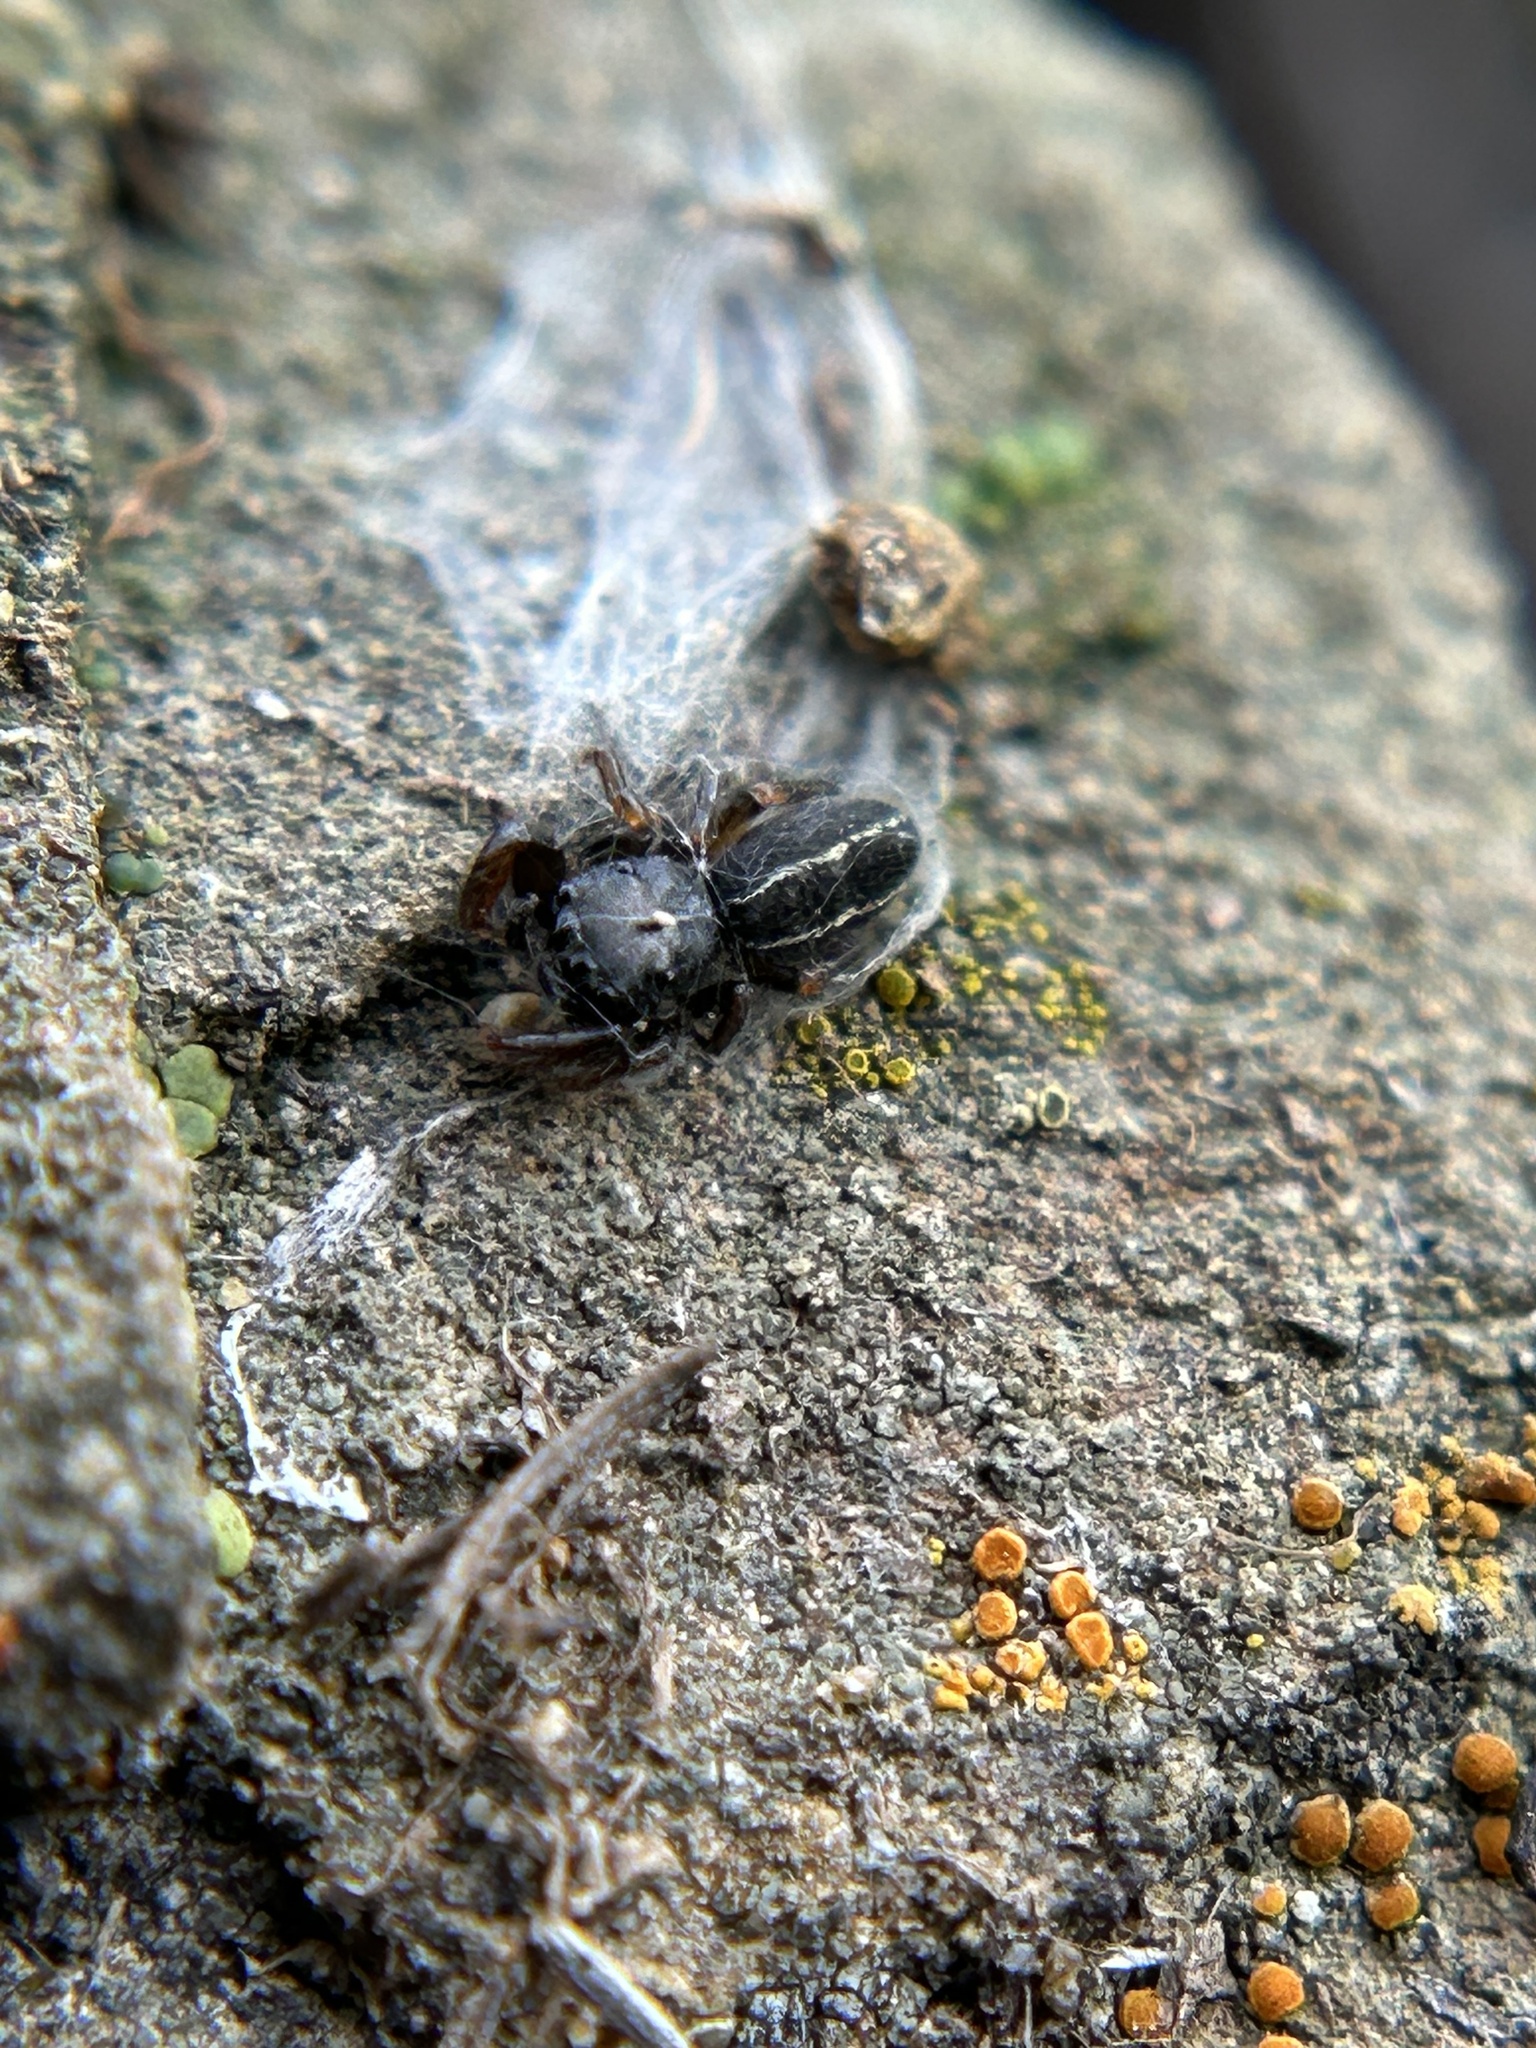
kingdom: Animalia
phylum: Arthropoda
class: Arachnida
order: Araneae
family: Salticidae
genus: Metacyrba
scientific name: Metacyrba taeniola
